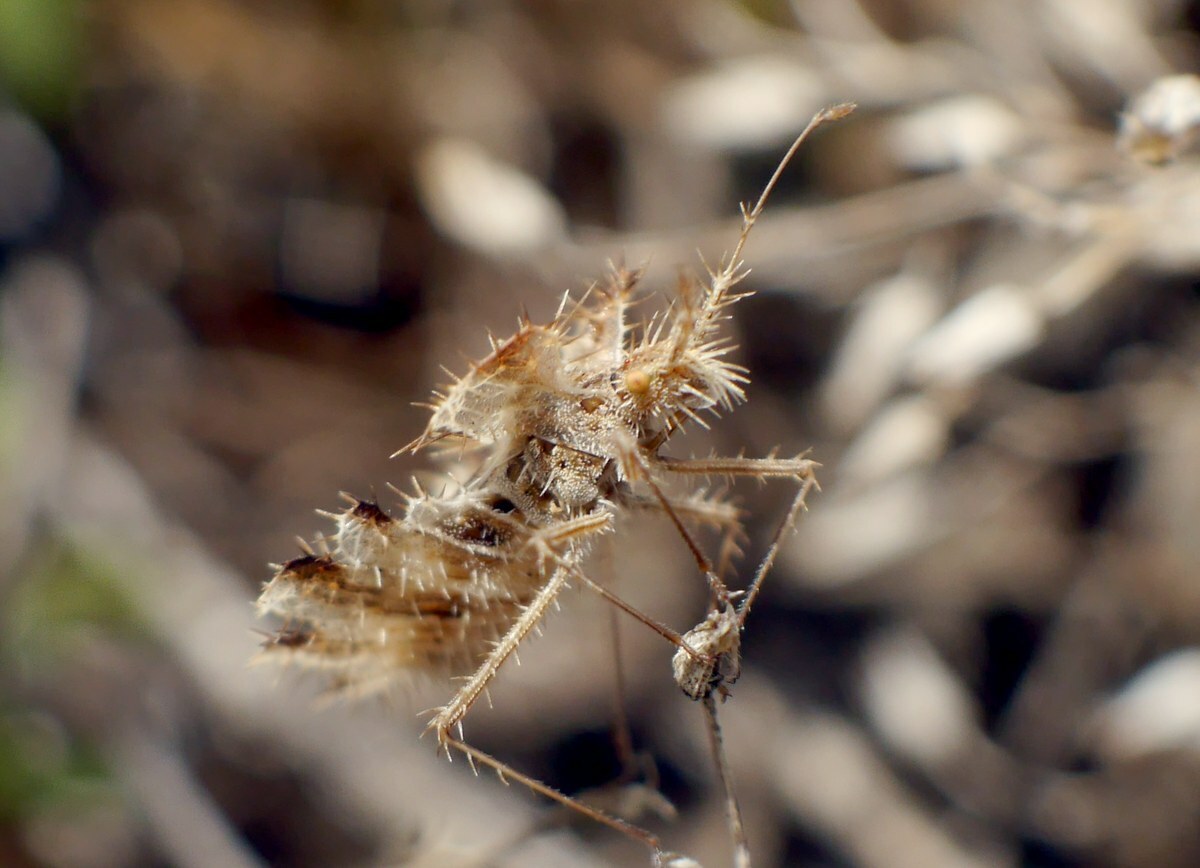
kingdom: Animalia
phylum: Arthropoda
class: Insecta
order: Hemiptera
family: Coreidae
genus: Phyllomorpha
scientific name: Phyllomorpha laciniata
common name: Golden egg bug
